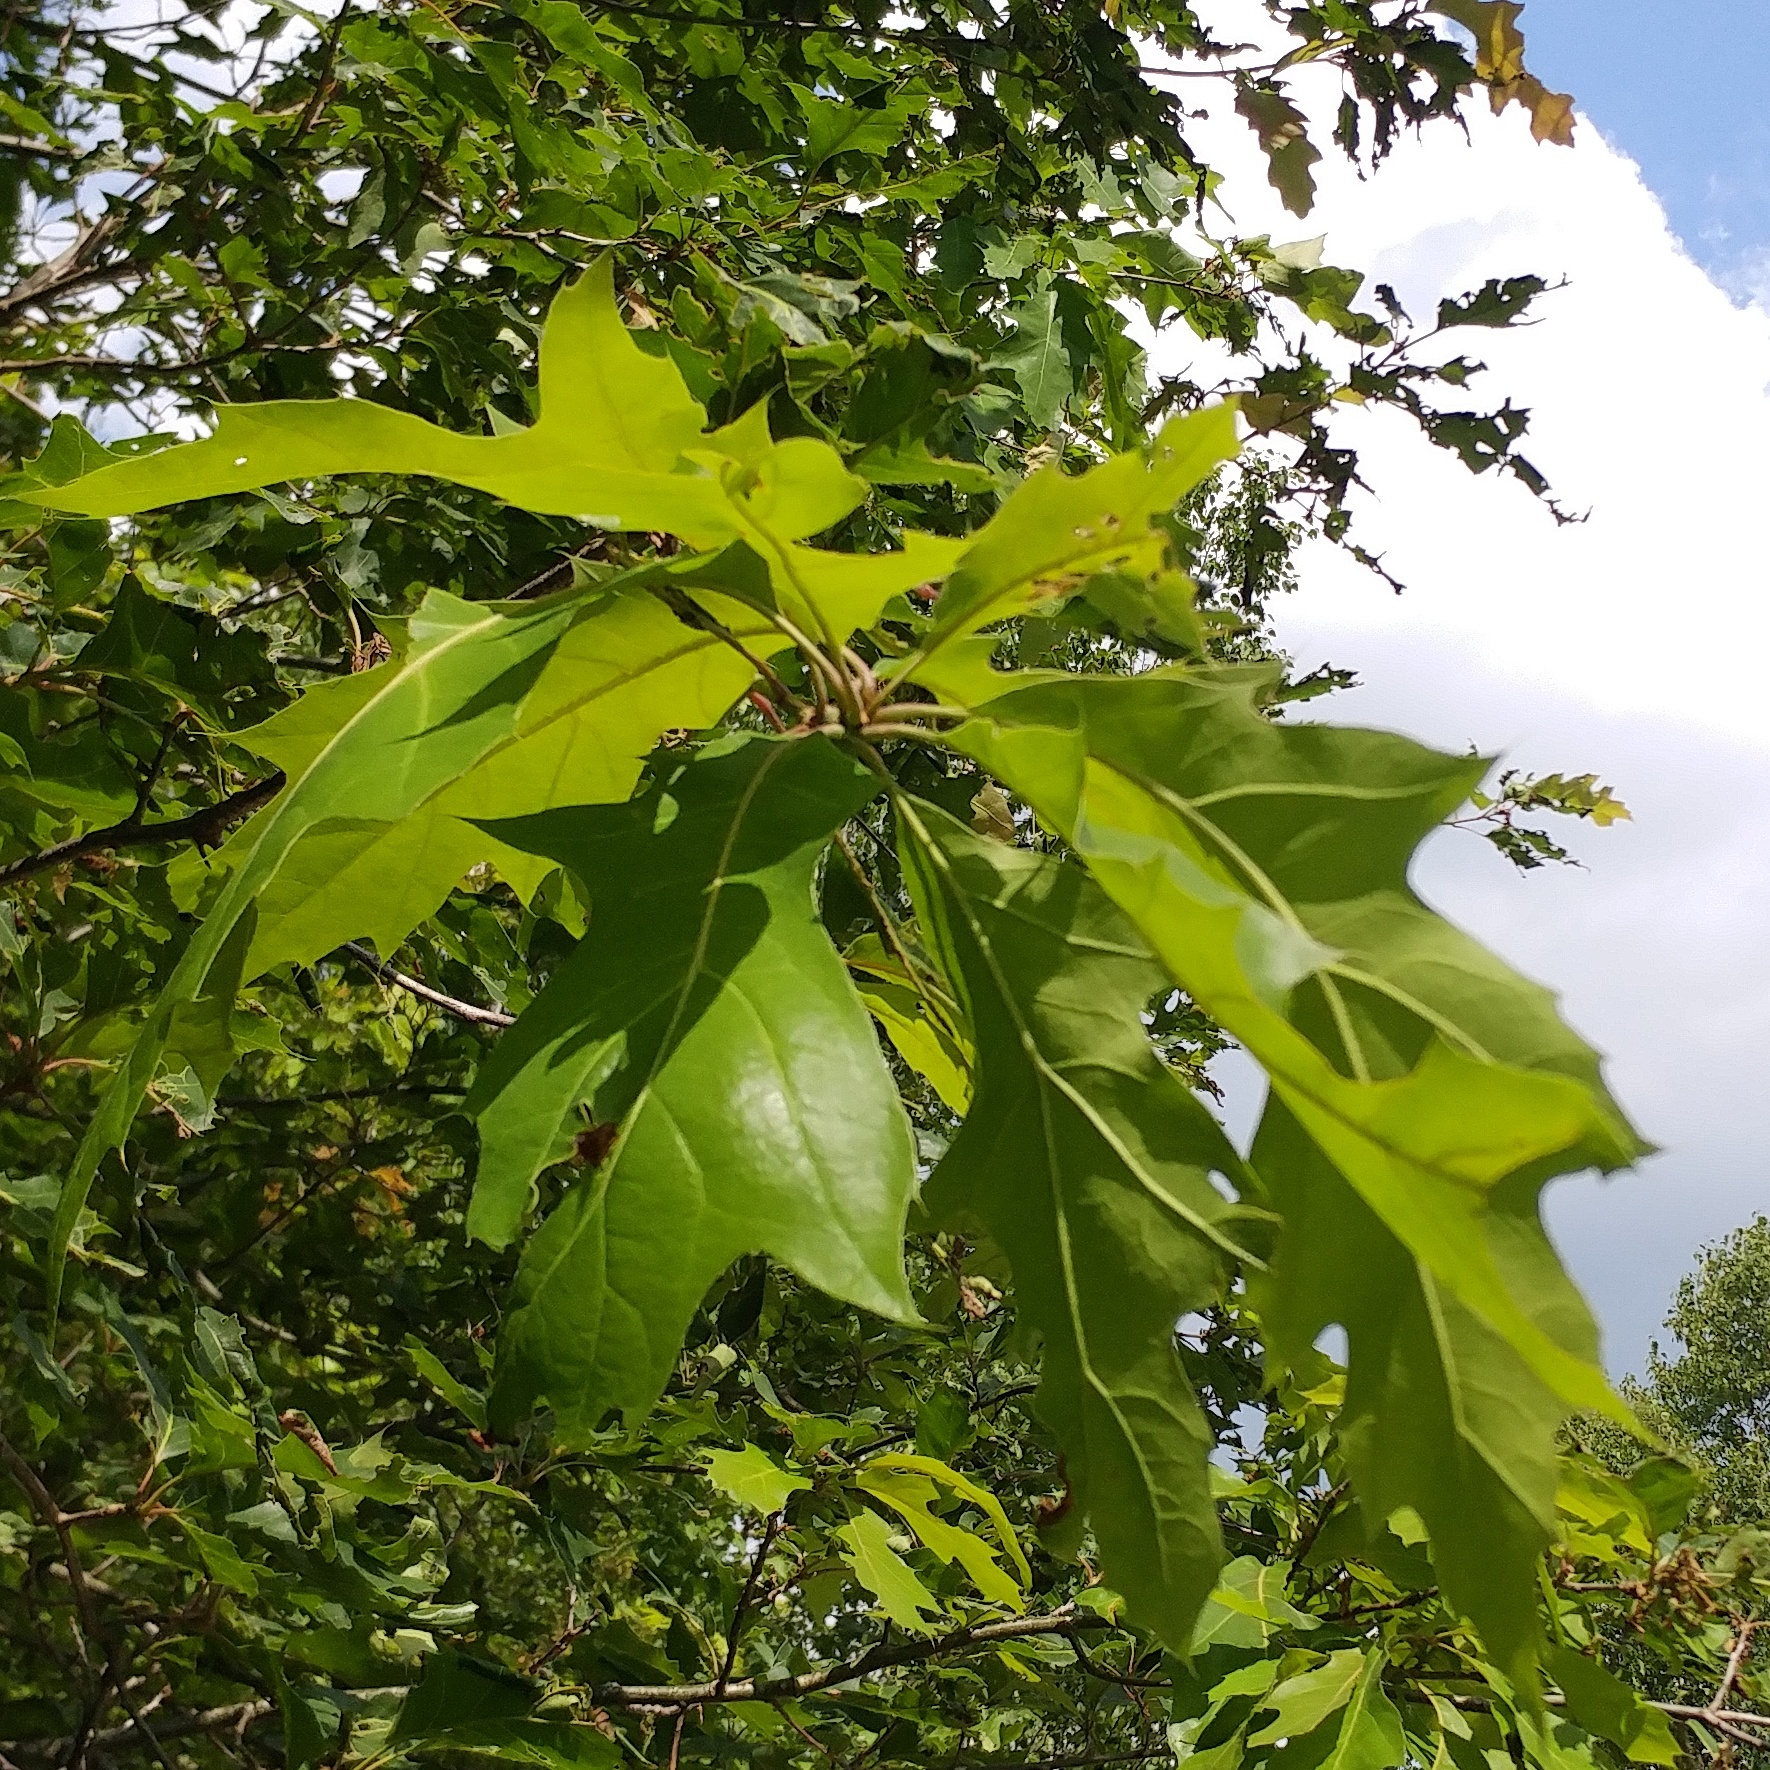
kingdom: Plantae
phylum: Tracheophyta
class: Magnoliopsida
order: Fagales
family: Fagaceae
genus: Quercus
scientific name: Quercus rubra
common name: Red oak
